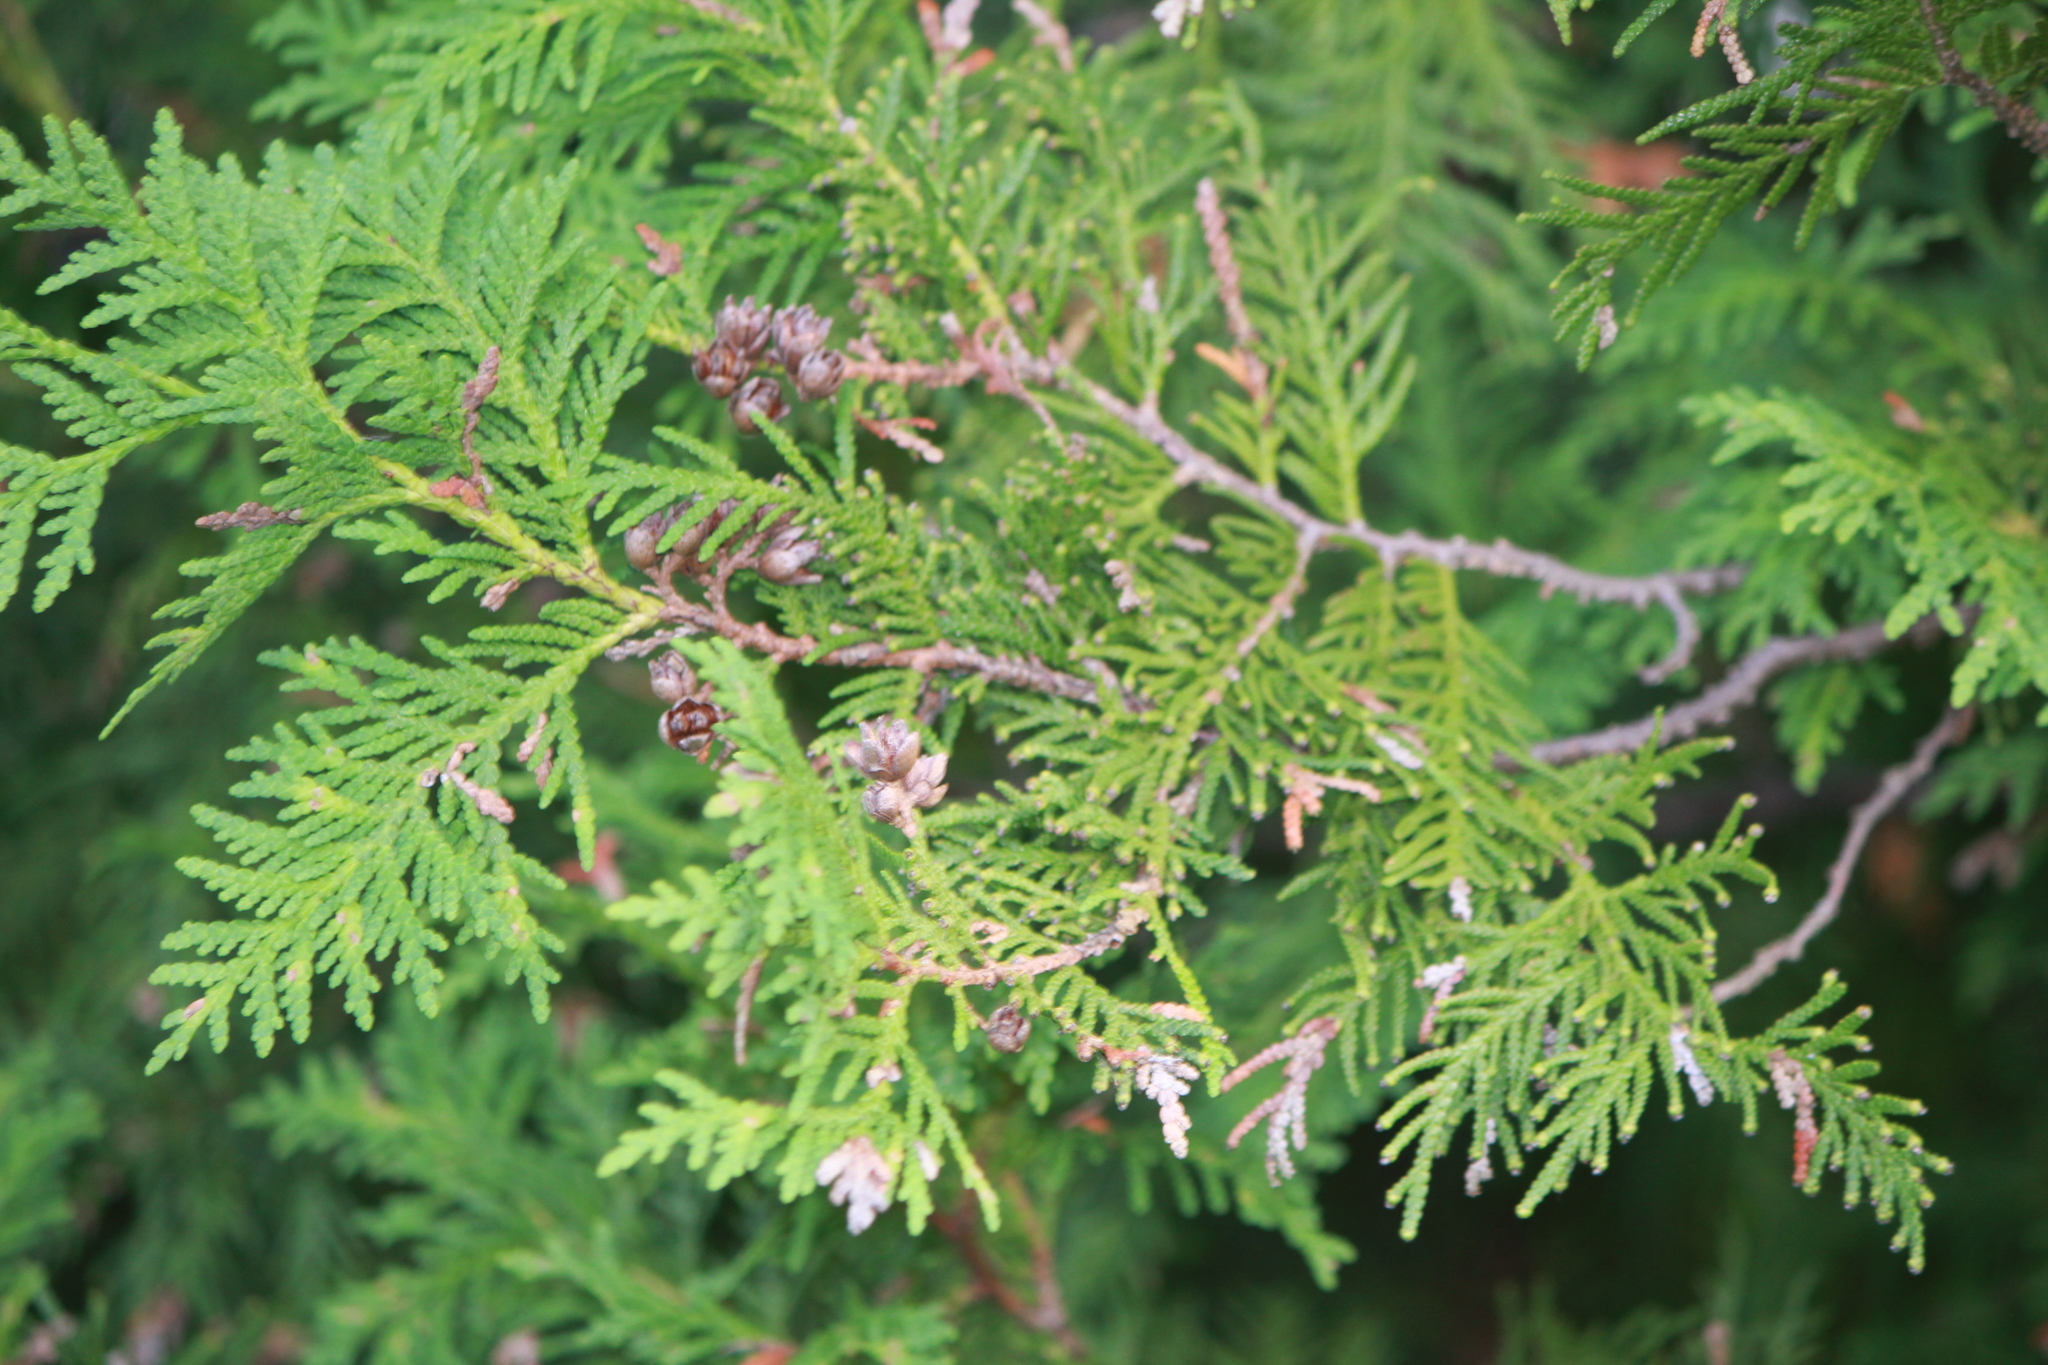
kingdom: Plantae
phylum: Tracheophyta
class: Pinopsida
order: Pinales
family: Cupressaceae
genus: Thuja
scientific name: Thuja occidentalis
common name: Northern white-cedar
